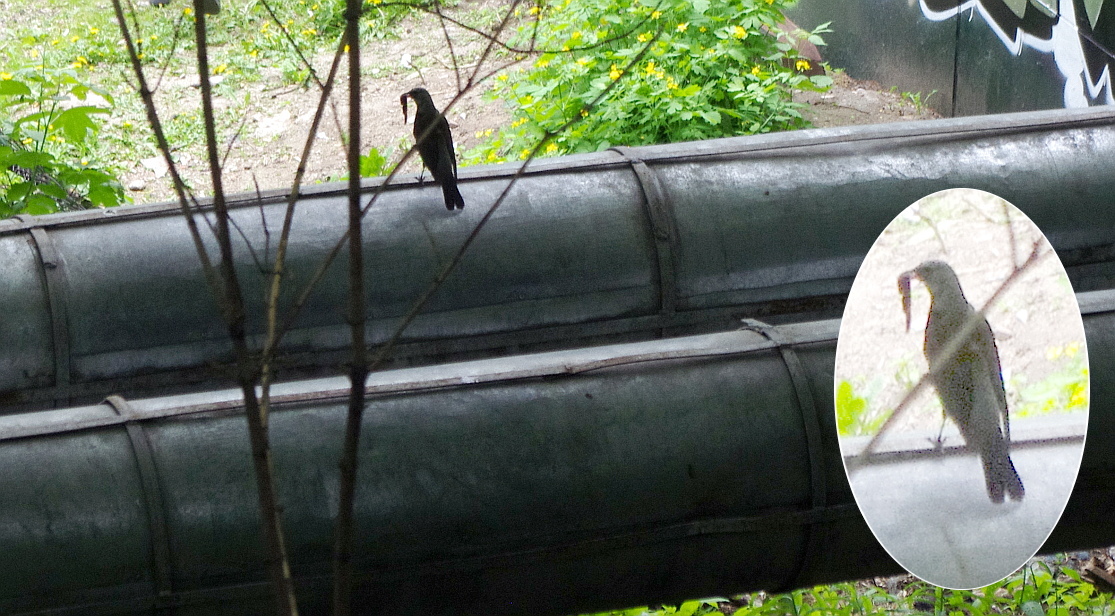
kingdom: Animalia
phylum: Chordata
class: Aves
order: Passeriformes
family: Turdidae
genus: Turdus
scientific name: Turdus pilaris
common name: Fieldfare
